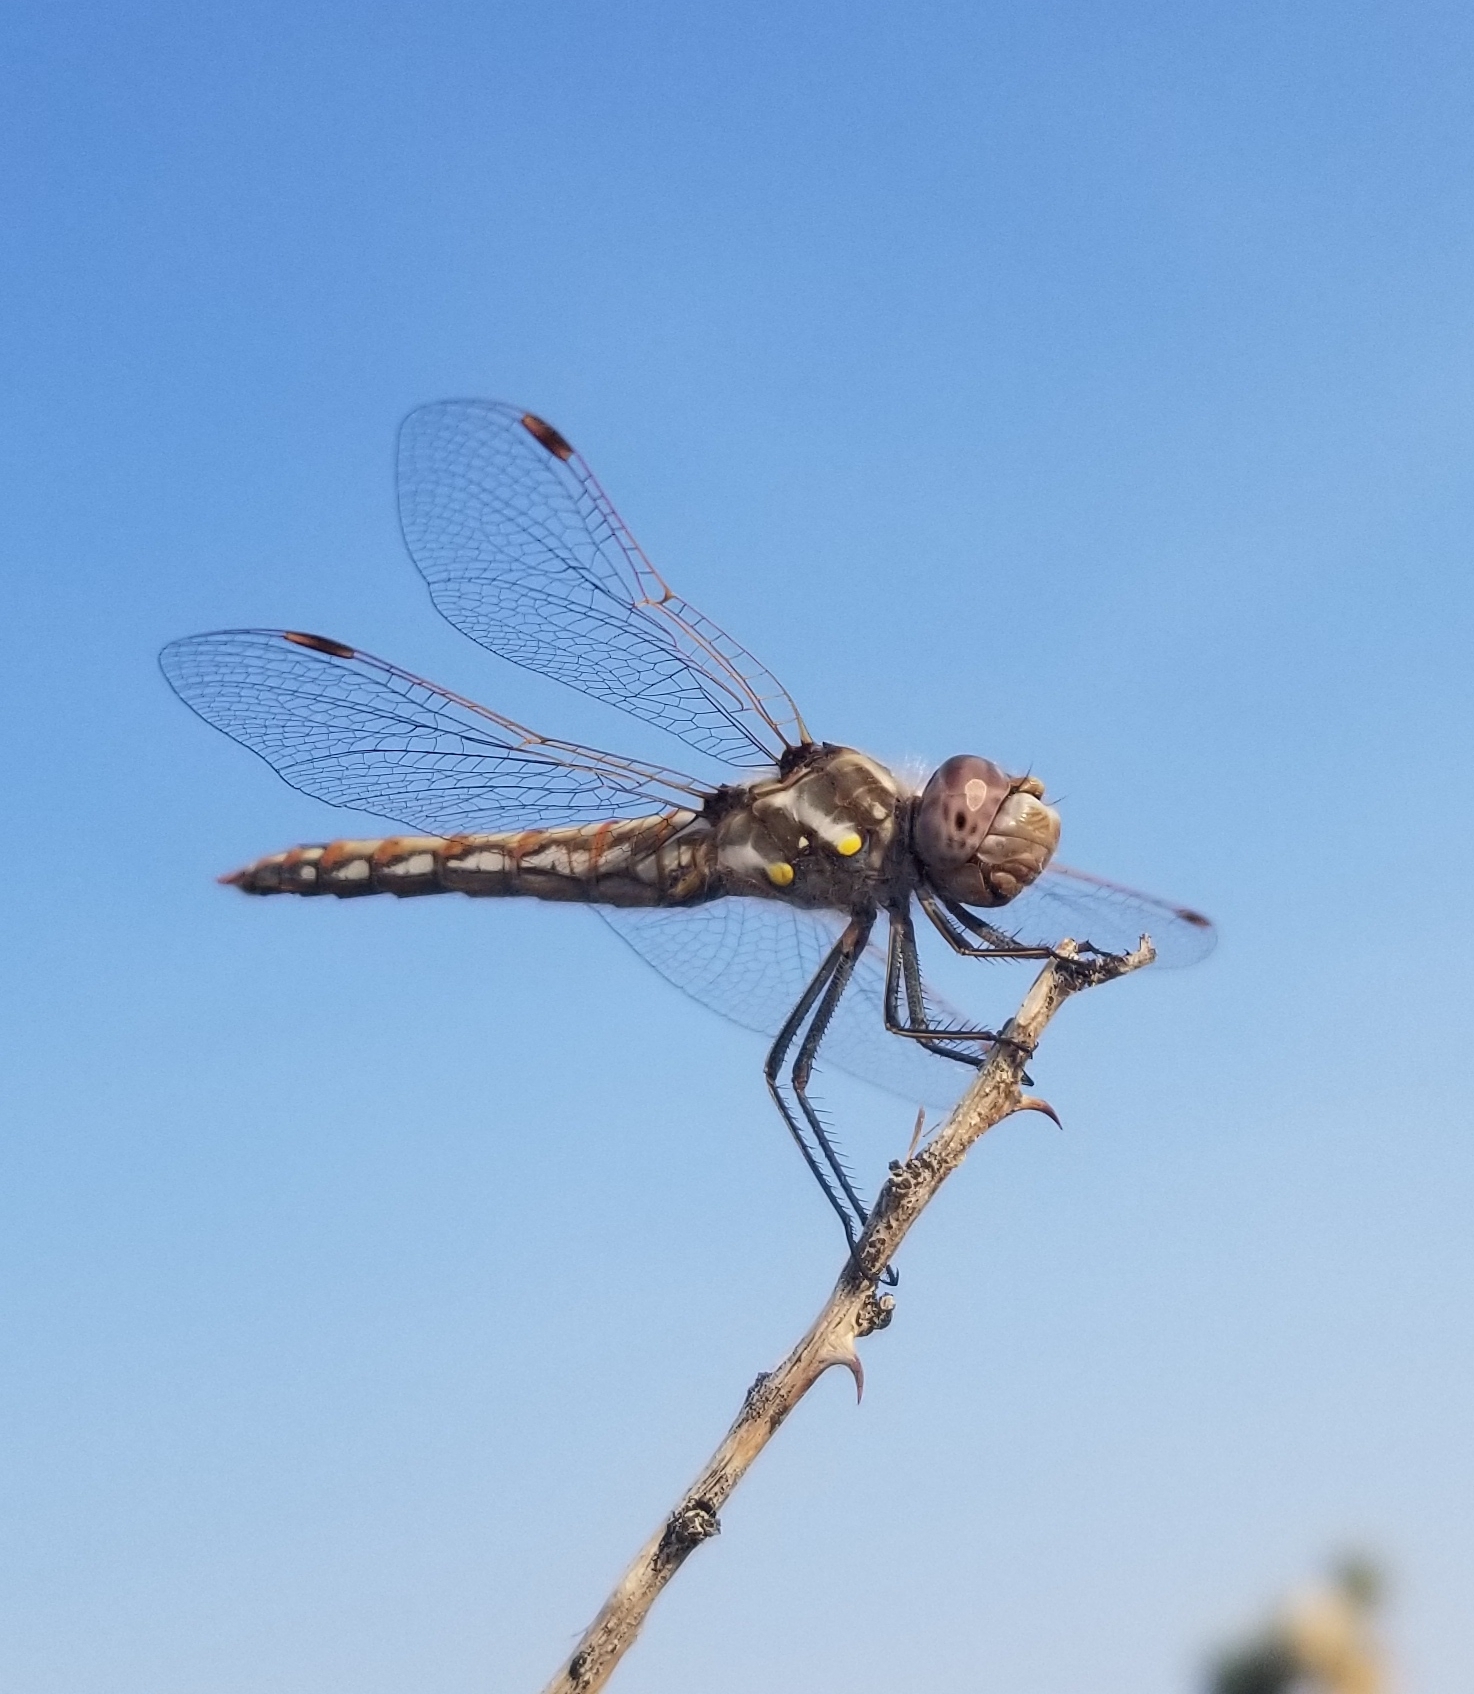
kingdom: Animalia
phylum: Arthropoda
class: Insecta
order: Odonata
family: Libellulidae
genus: Sympetrum
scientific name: Sympetrum corruptum
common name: Variegated meadowhawk
